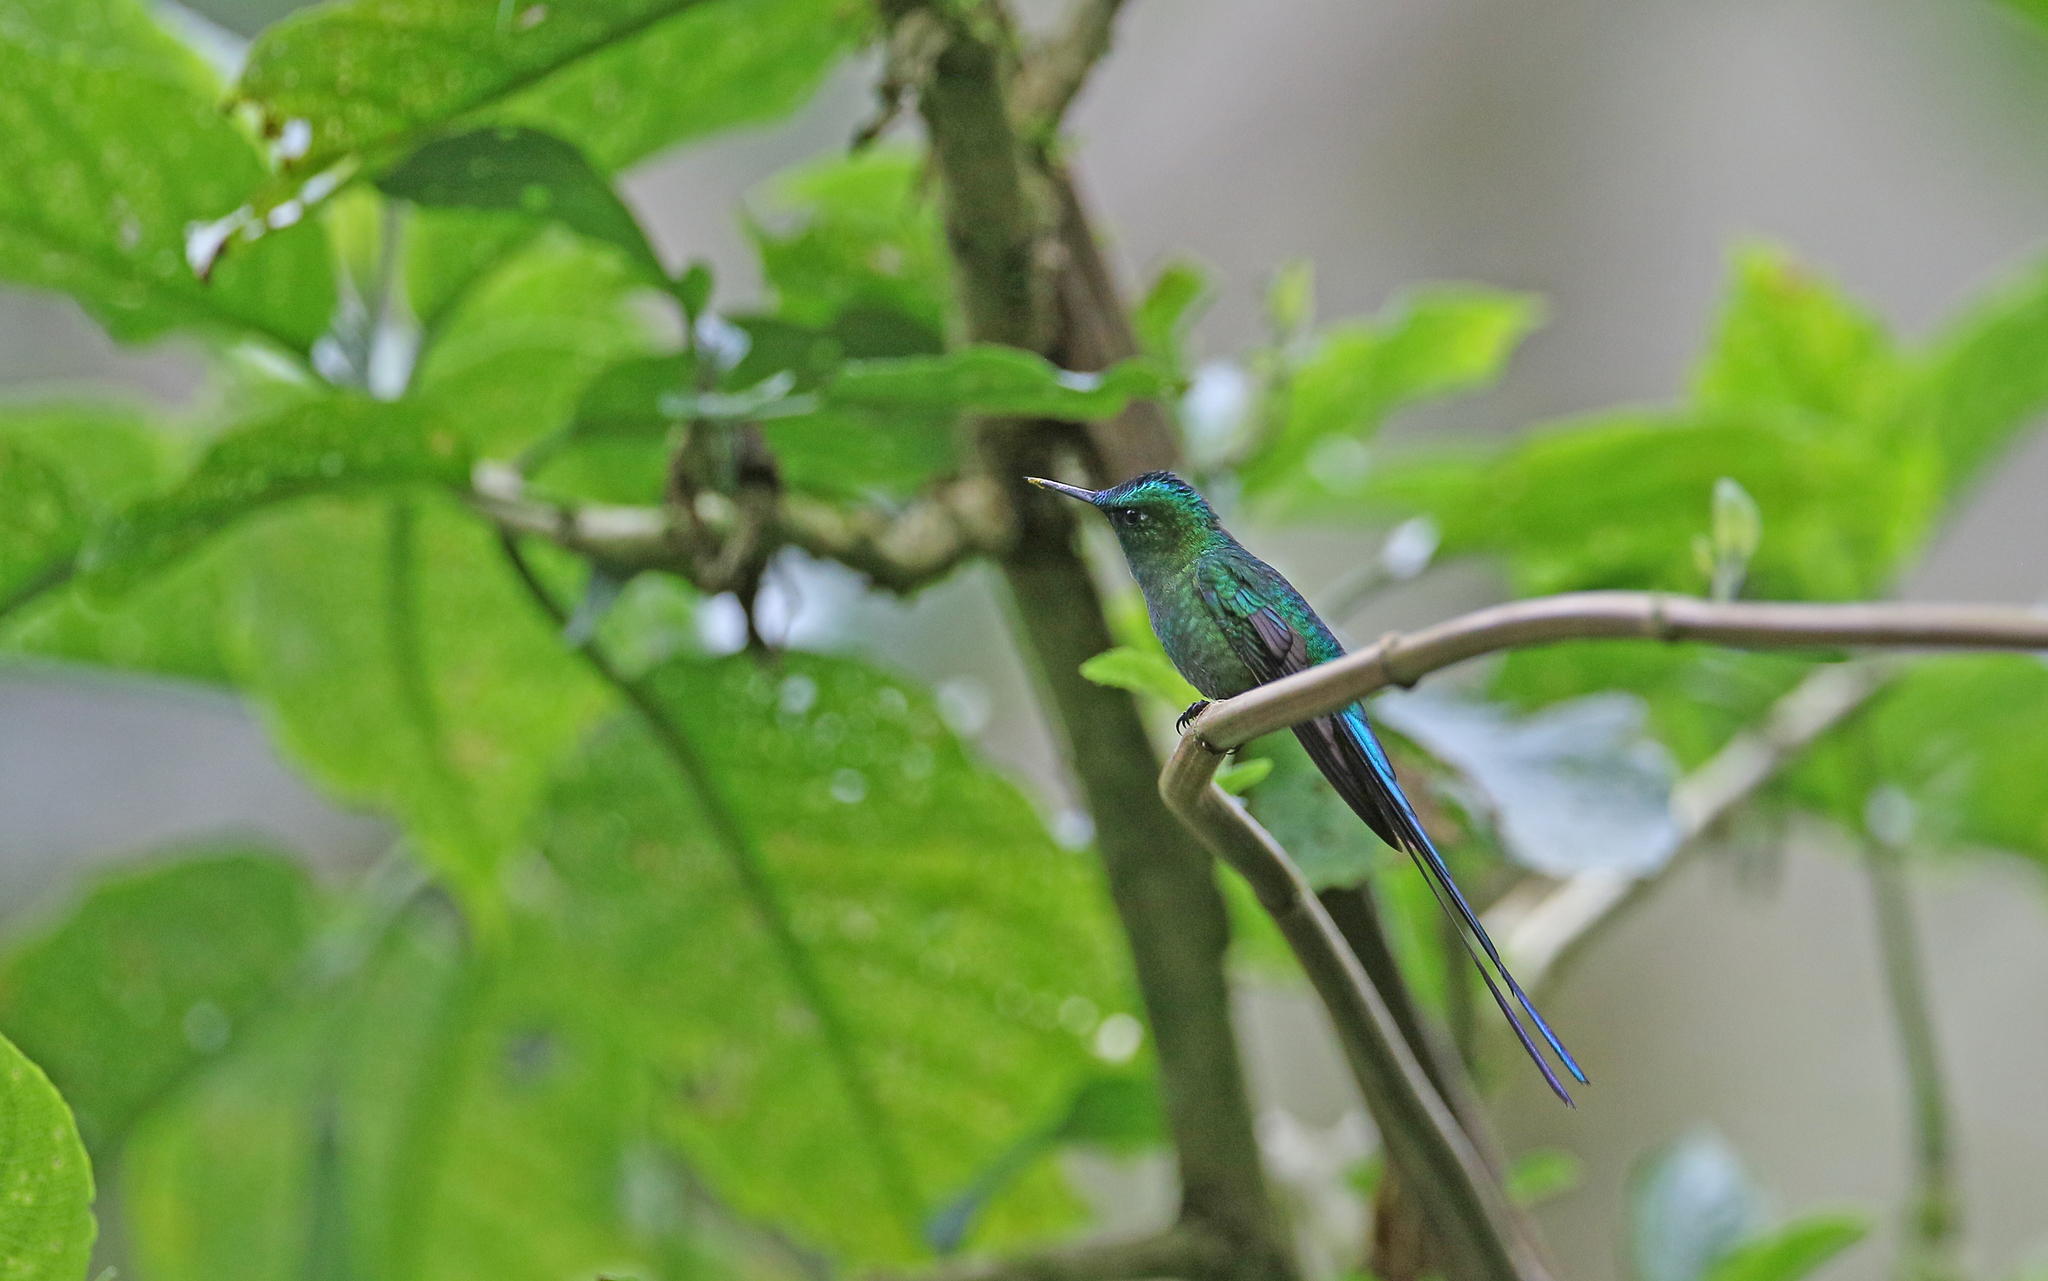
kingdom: Animalia
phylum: Chordata
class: Aves
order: Apodiformes
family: Trochilidae
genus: Aglaiocercus
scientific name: Aglaiocercus kingii
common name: Long-tailed sylph
